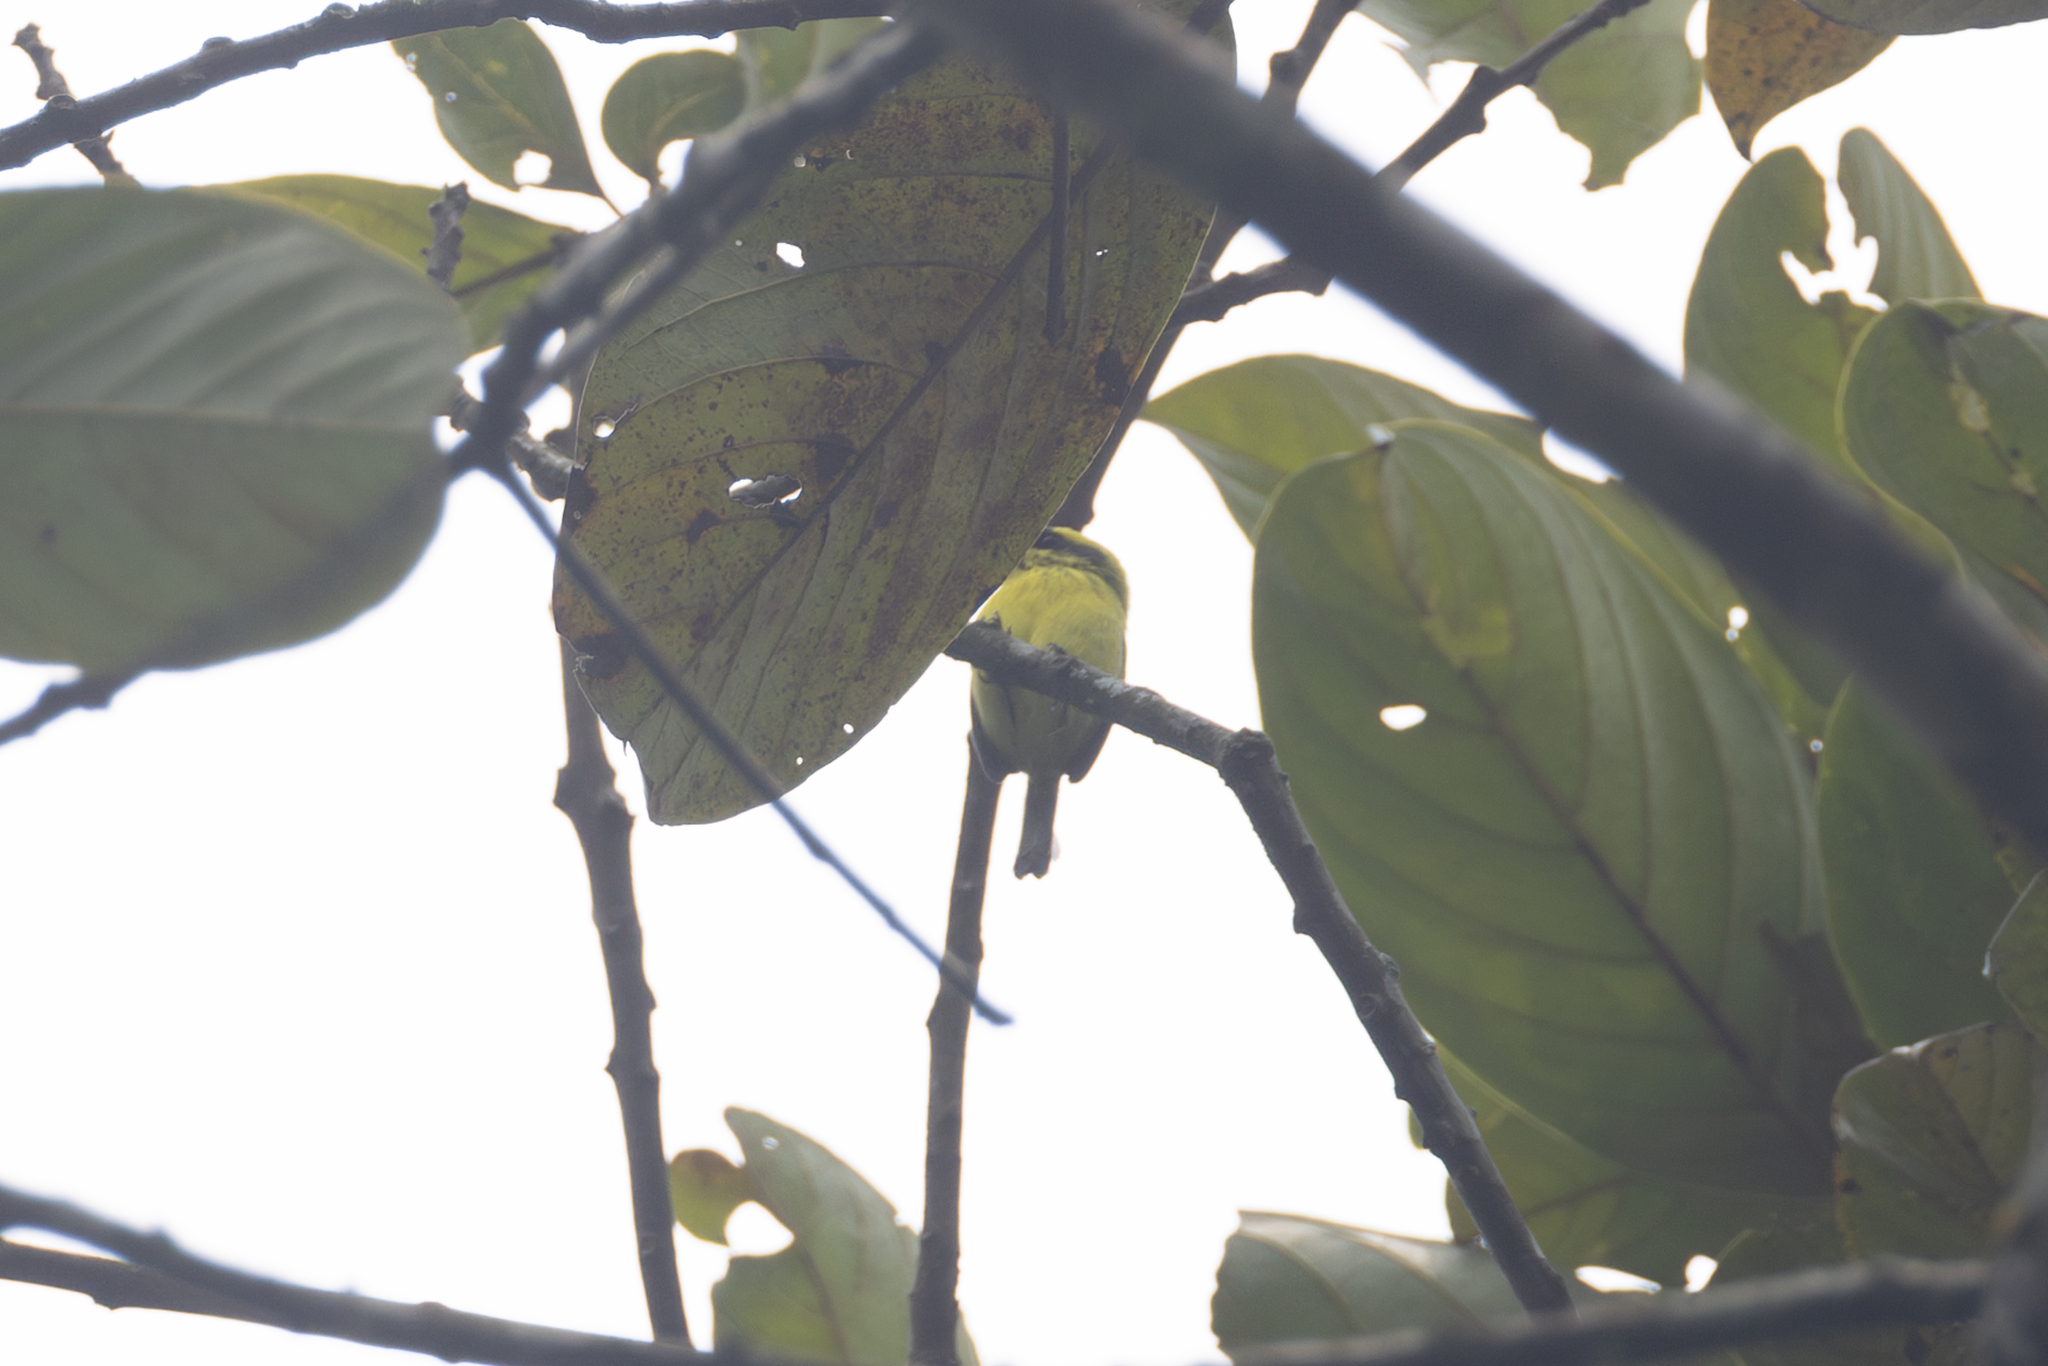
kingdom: Animalia
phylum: Chordata
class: Aves
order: Passeriformes
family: Tyrannidae
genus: Todirostrum
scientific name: Todirostrum chrysocrotaphum
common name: Yellow-browed tody-flycatcher
